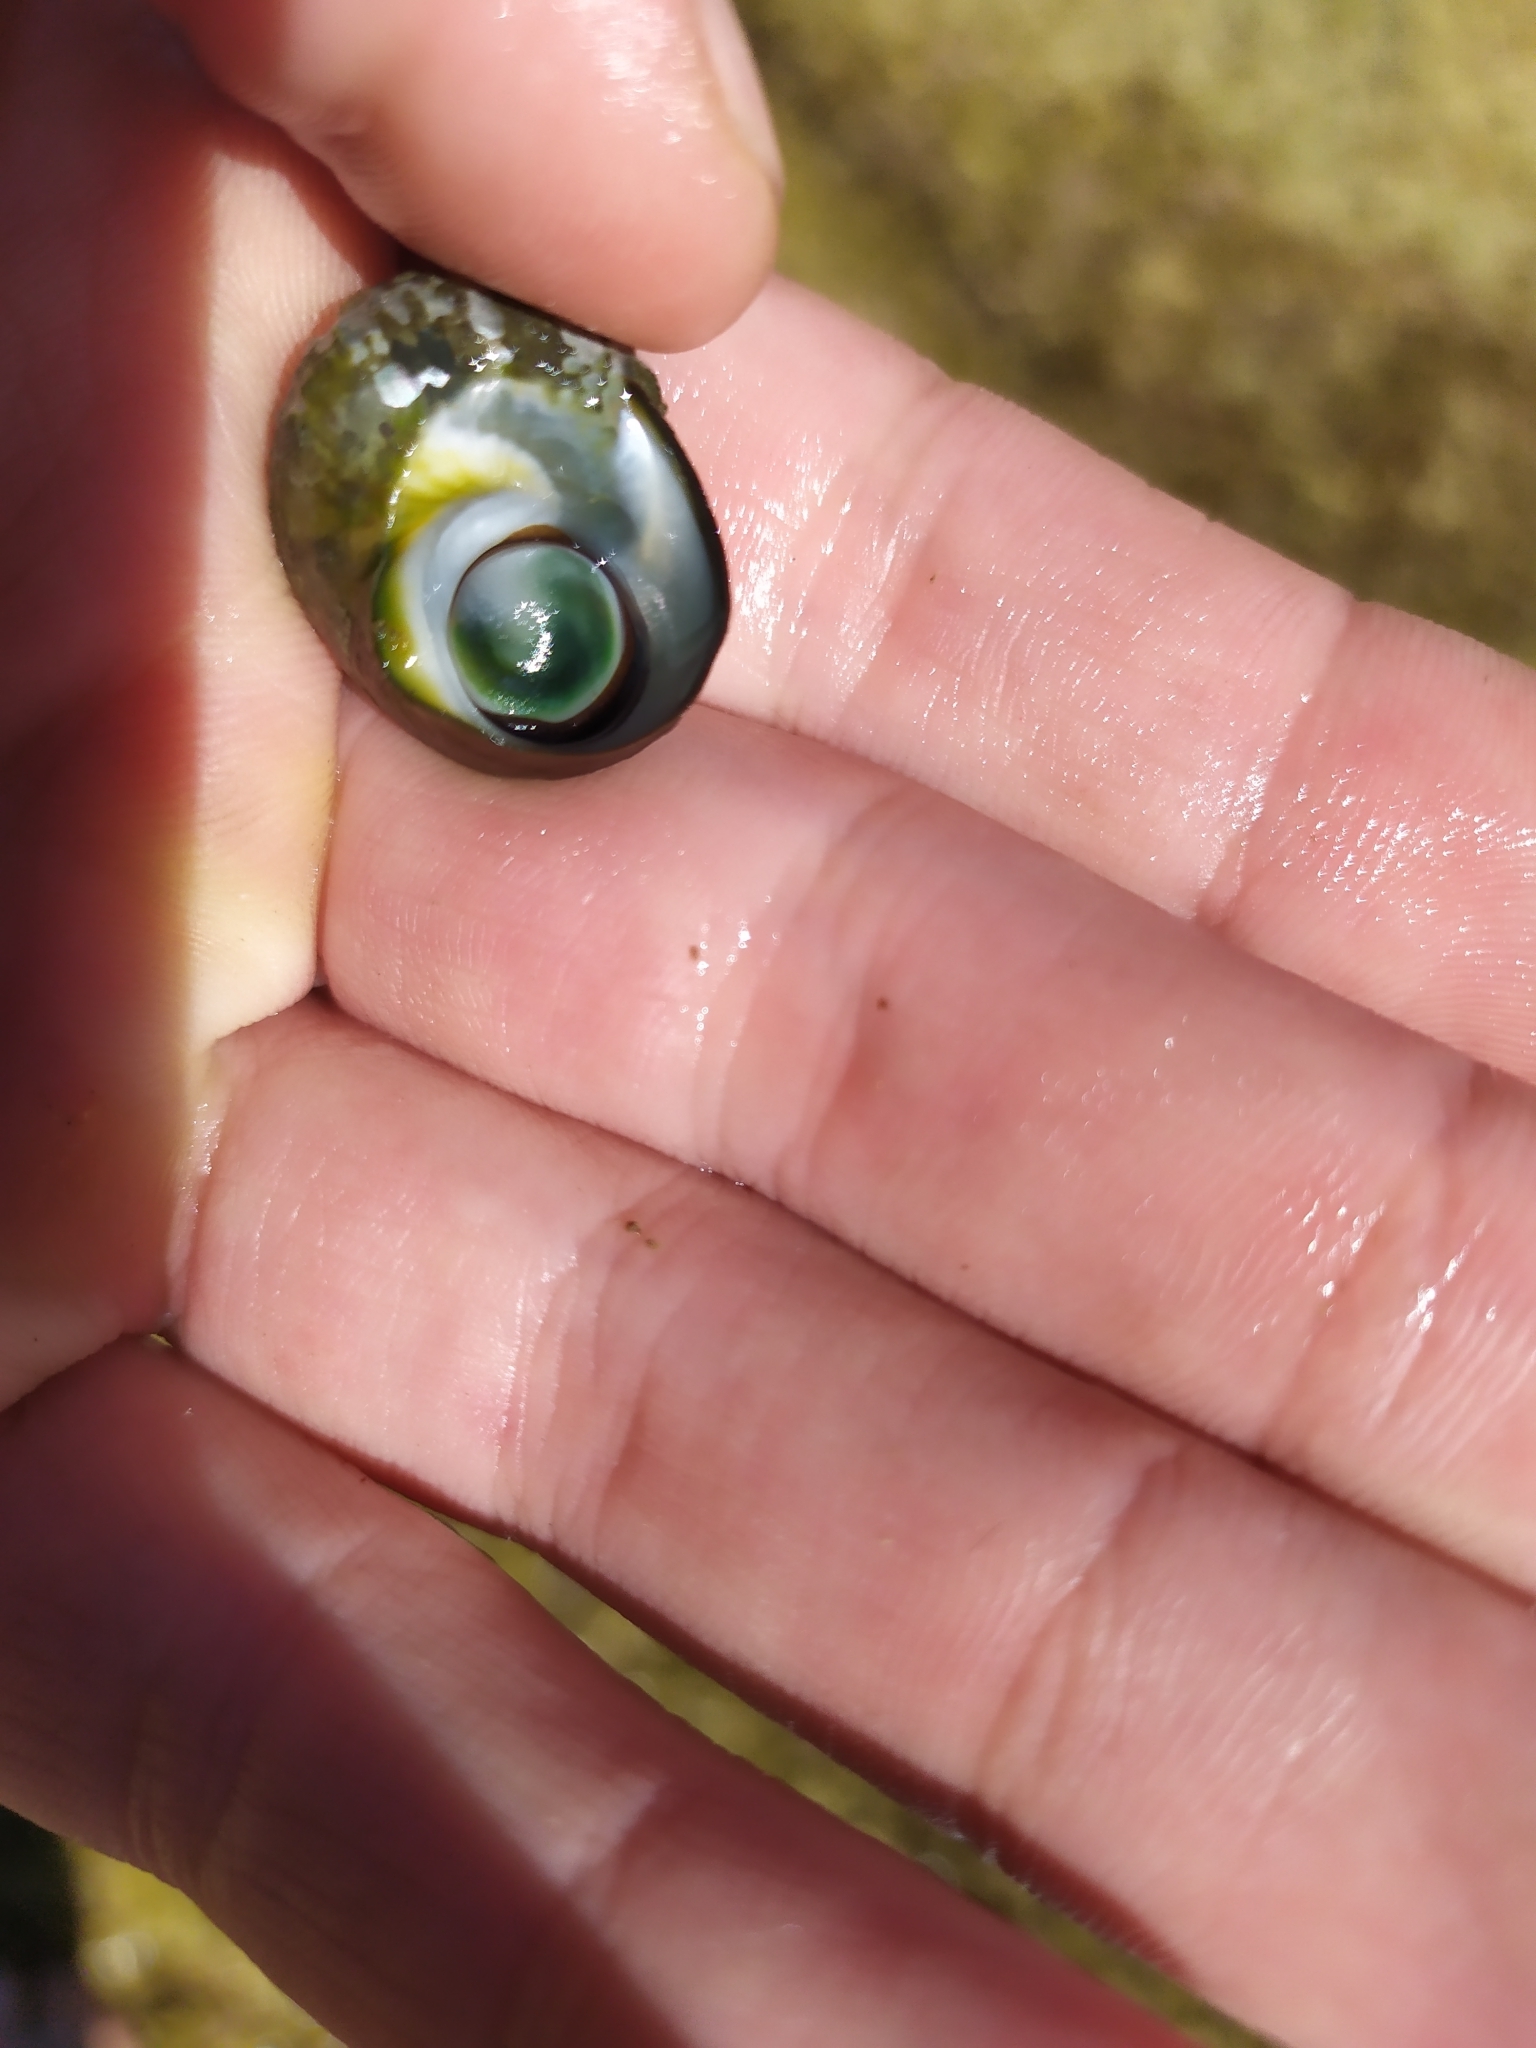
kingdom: Animalia
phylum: Mollusca
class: Gastropoda
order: Trochida
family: Turbinidae
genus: Lunella
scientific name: Lunella smaragda
